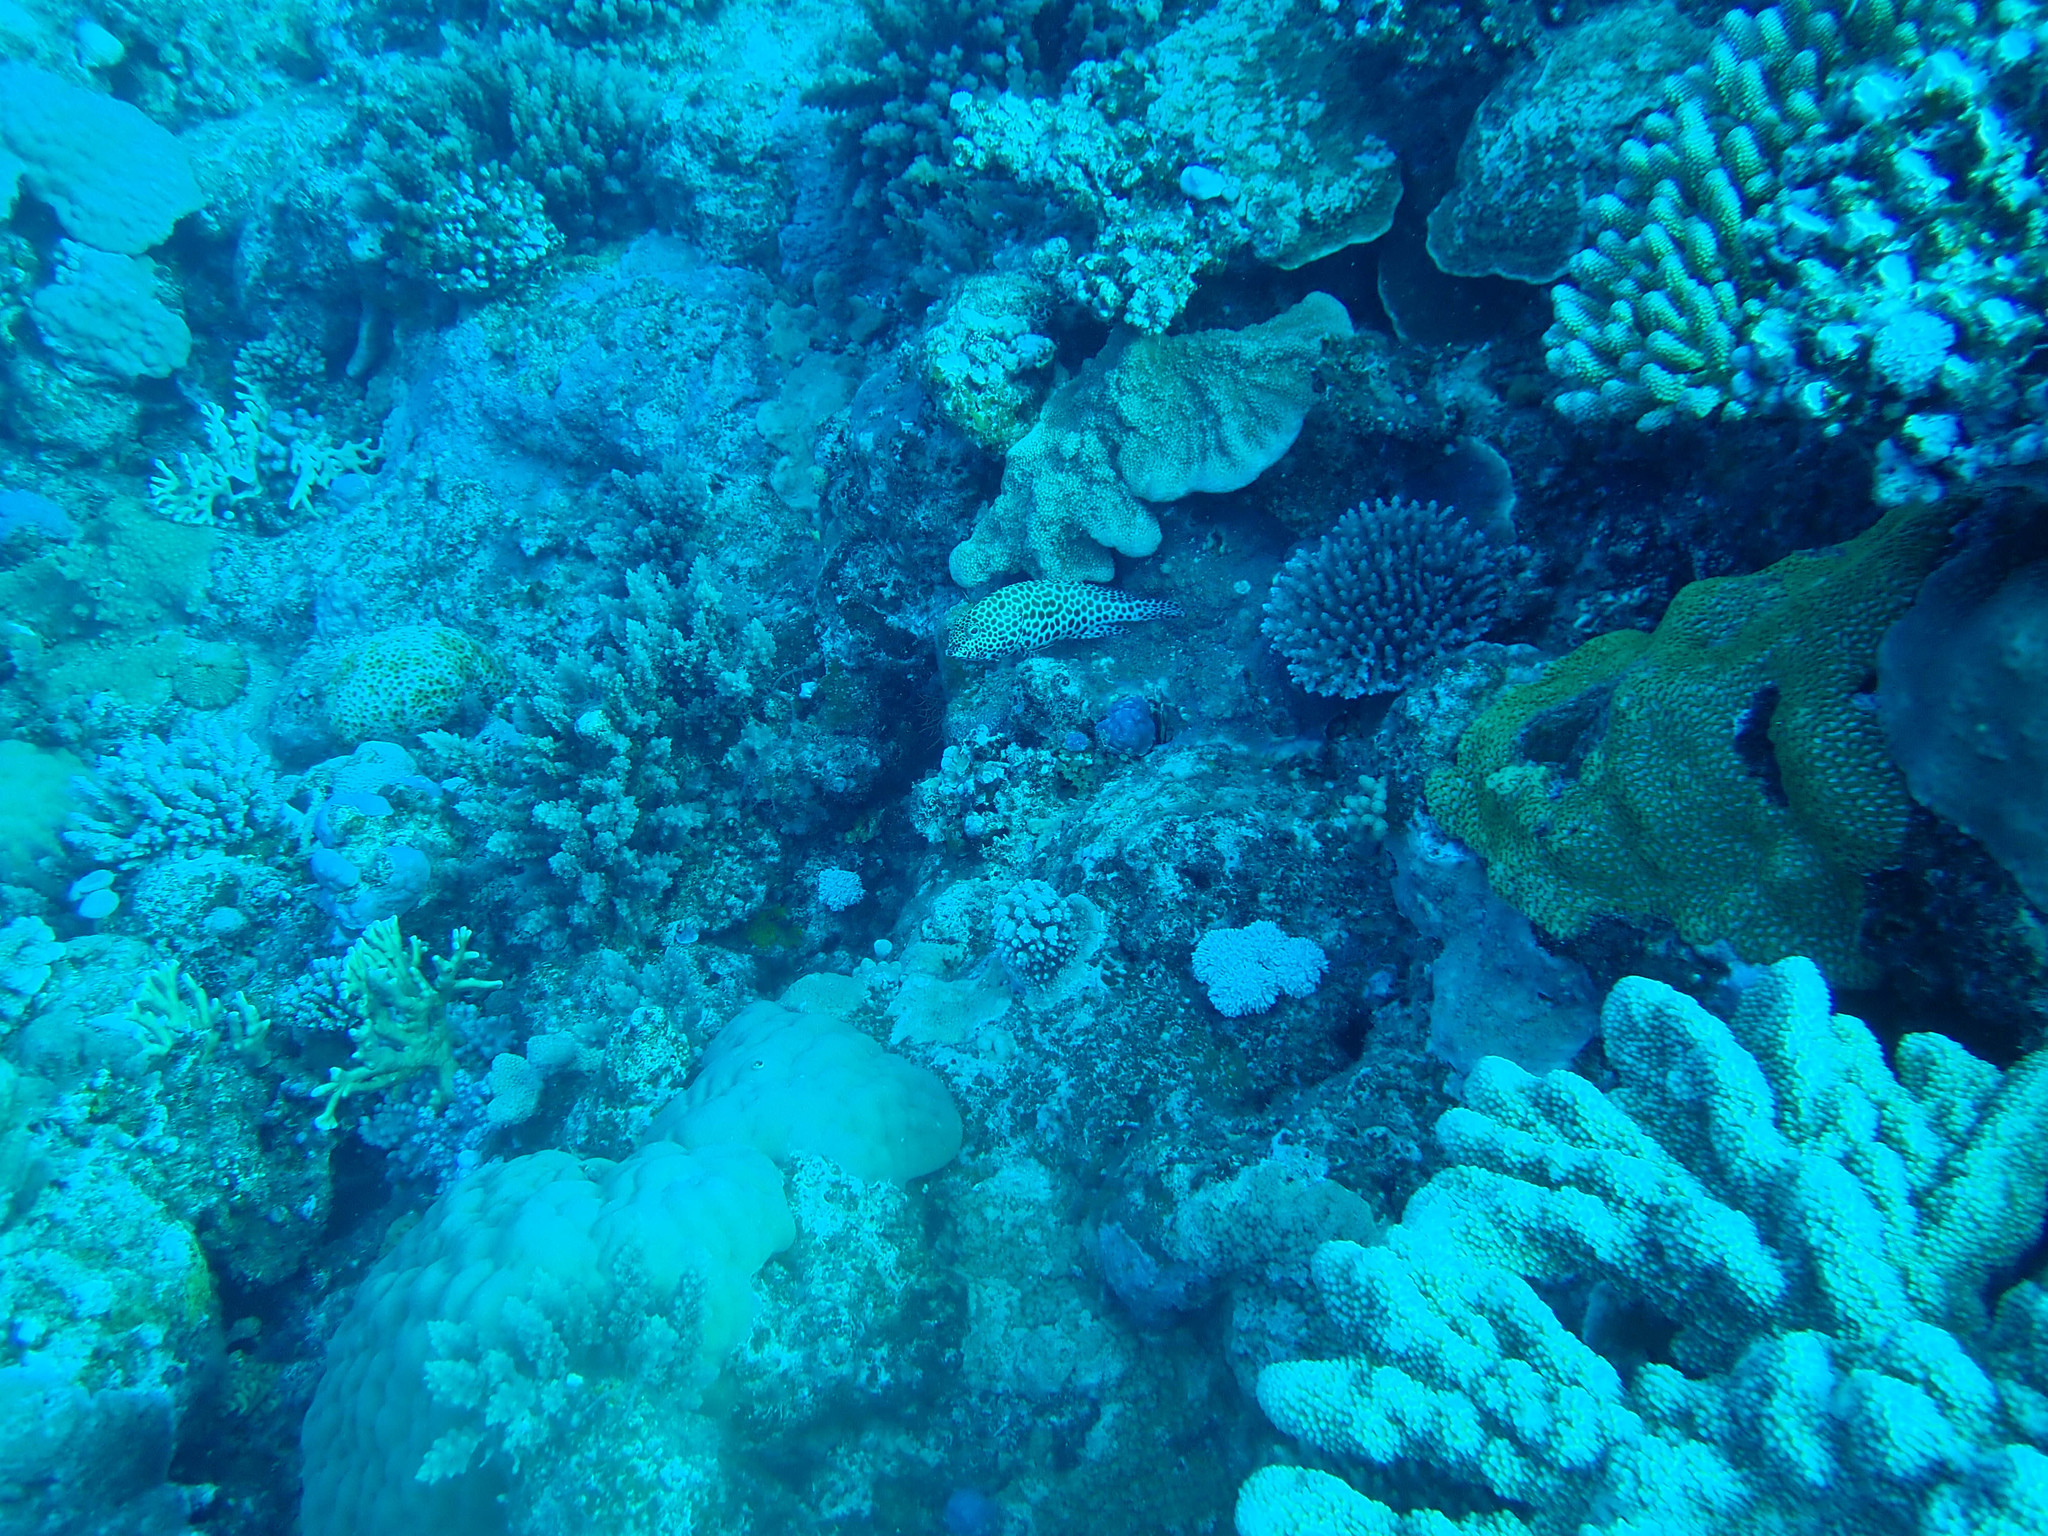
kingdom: Animalia
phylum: Chordata
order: Perciformes
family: Serranidae
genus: Epinephelus
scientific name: Epinephelus merra
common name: Honeycomb grouper
